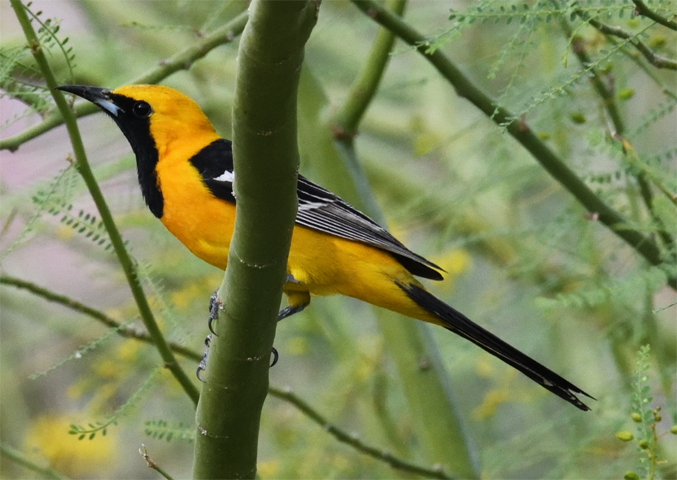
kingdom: Animalia
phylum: Chordata
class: Aves
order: Passeriformes
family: Icteridae
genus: Icterus
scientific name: Icterus cucullatus
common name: Hooded oriole
